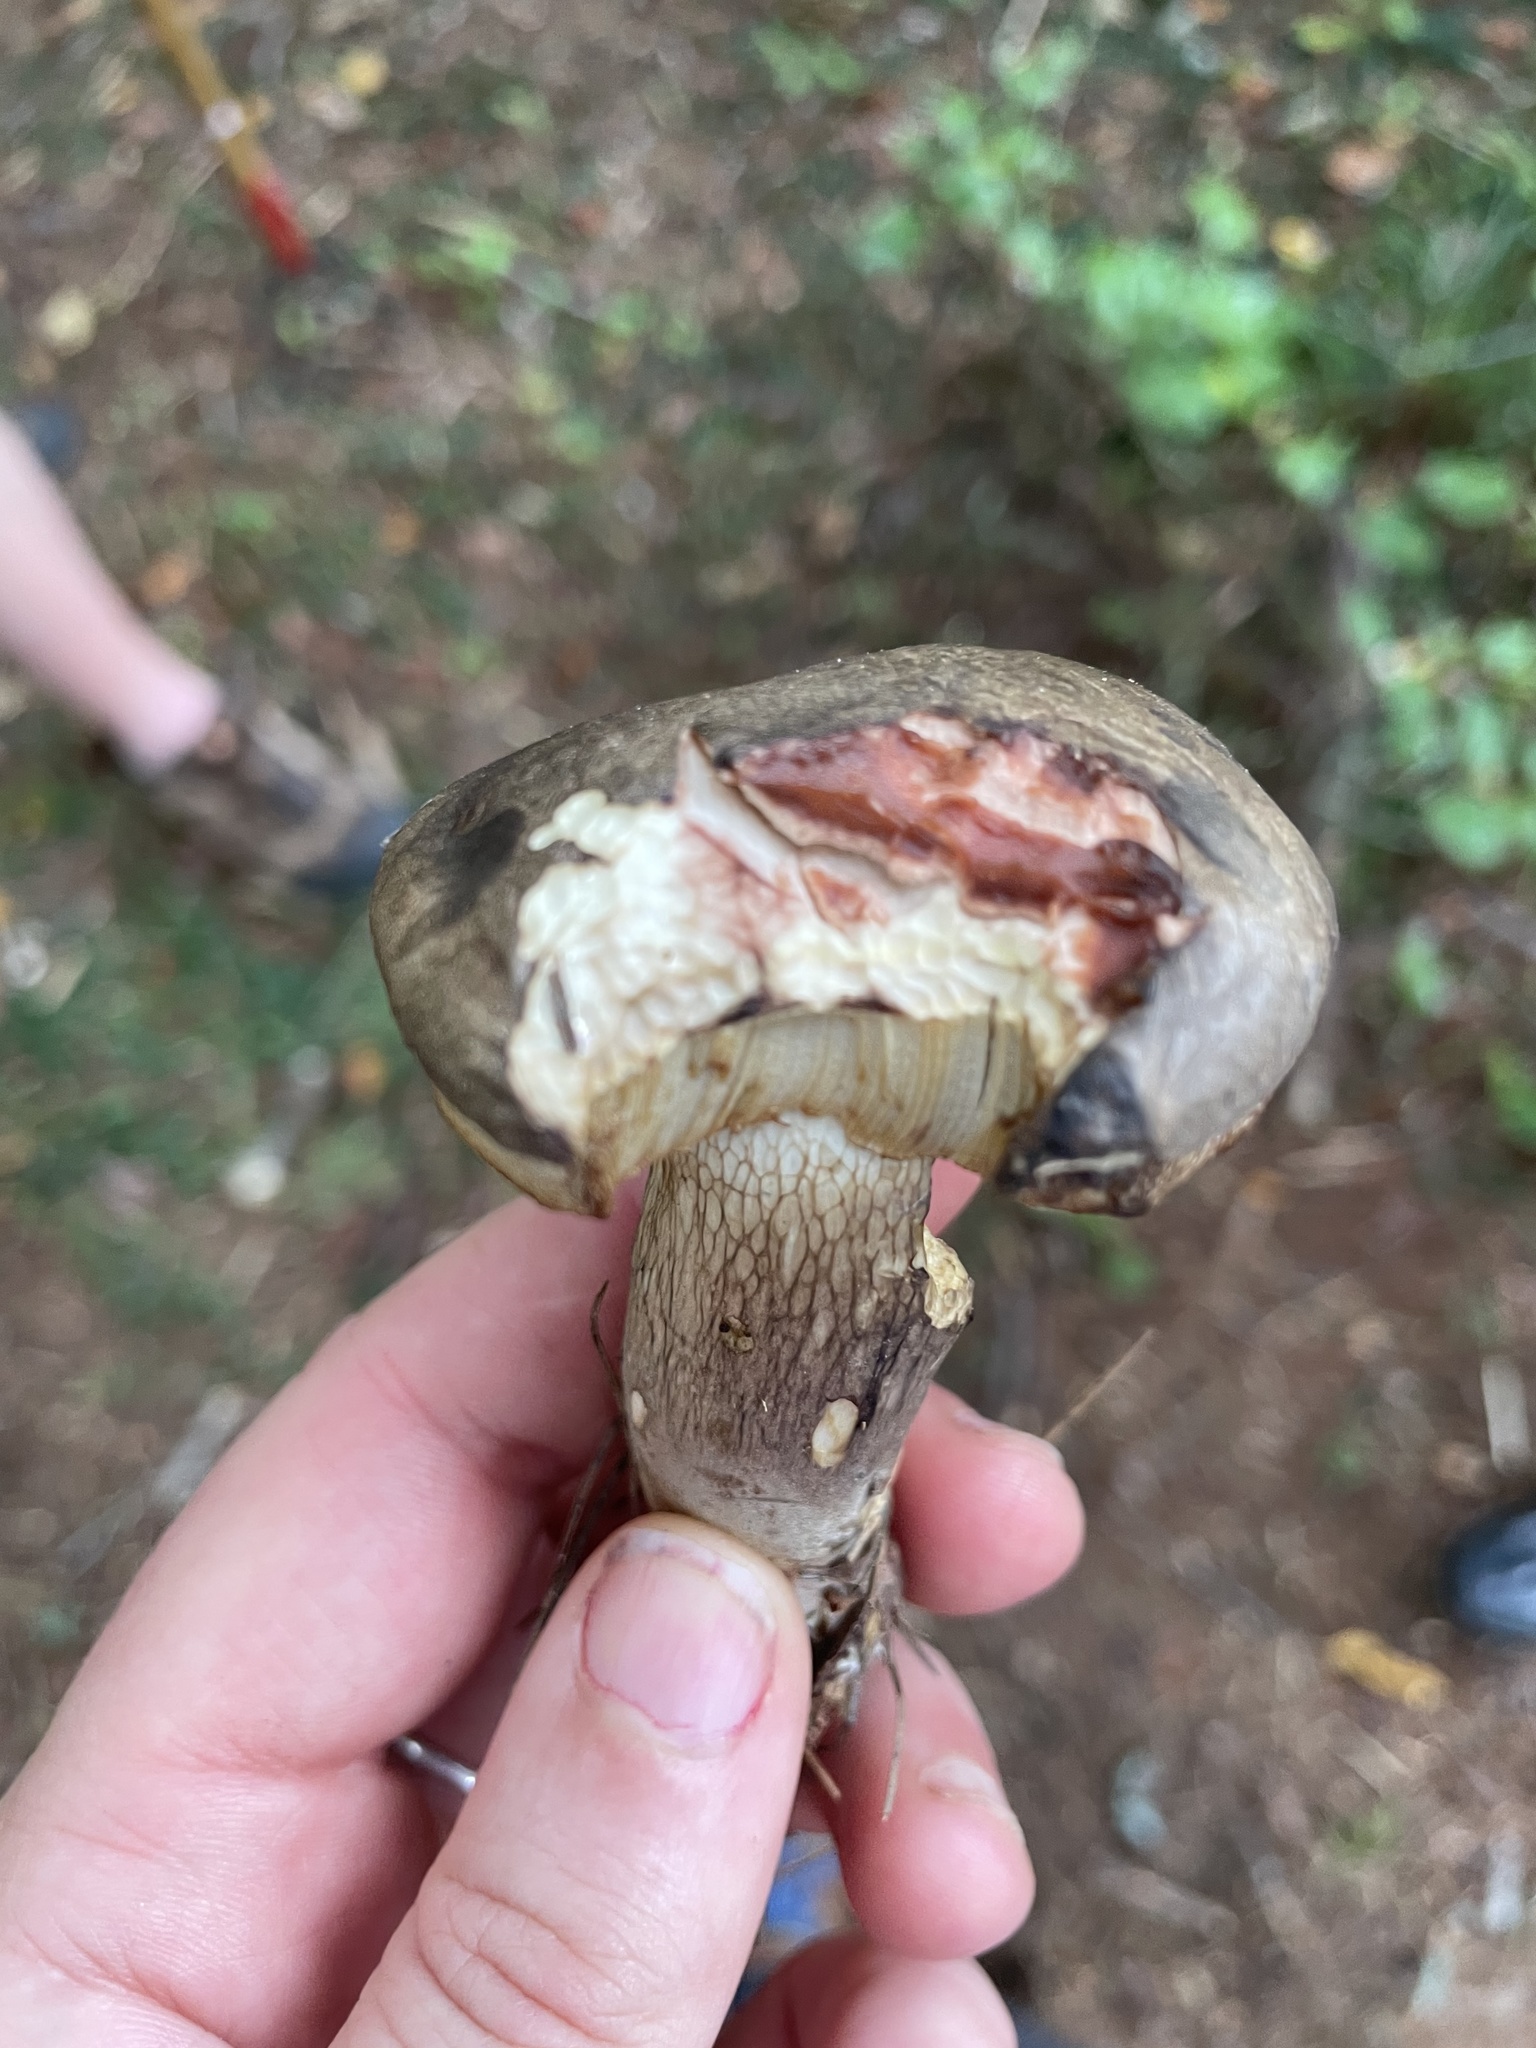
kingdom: Fungi
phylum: Basidiomycota
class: Agaricomycetes
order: Boletales
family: Boletaceae
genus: Retiboletus
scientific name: Retiboletus vinaceipes
